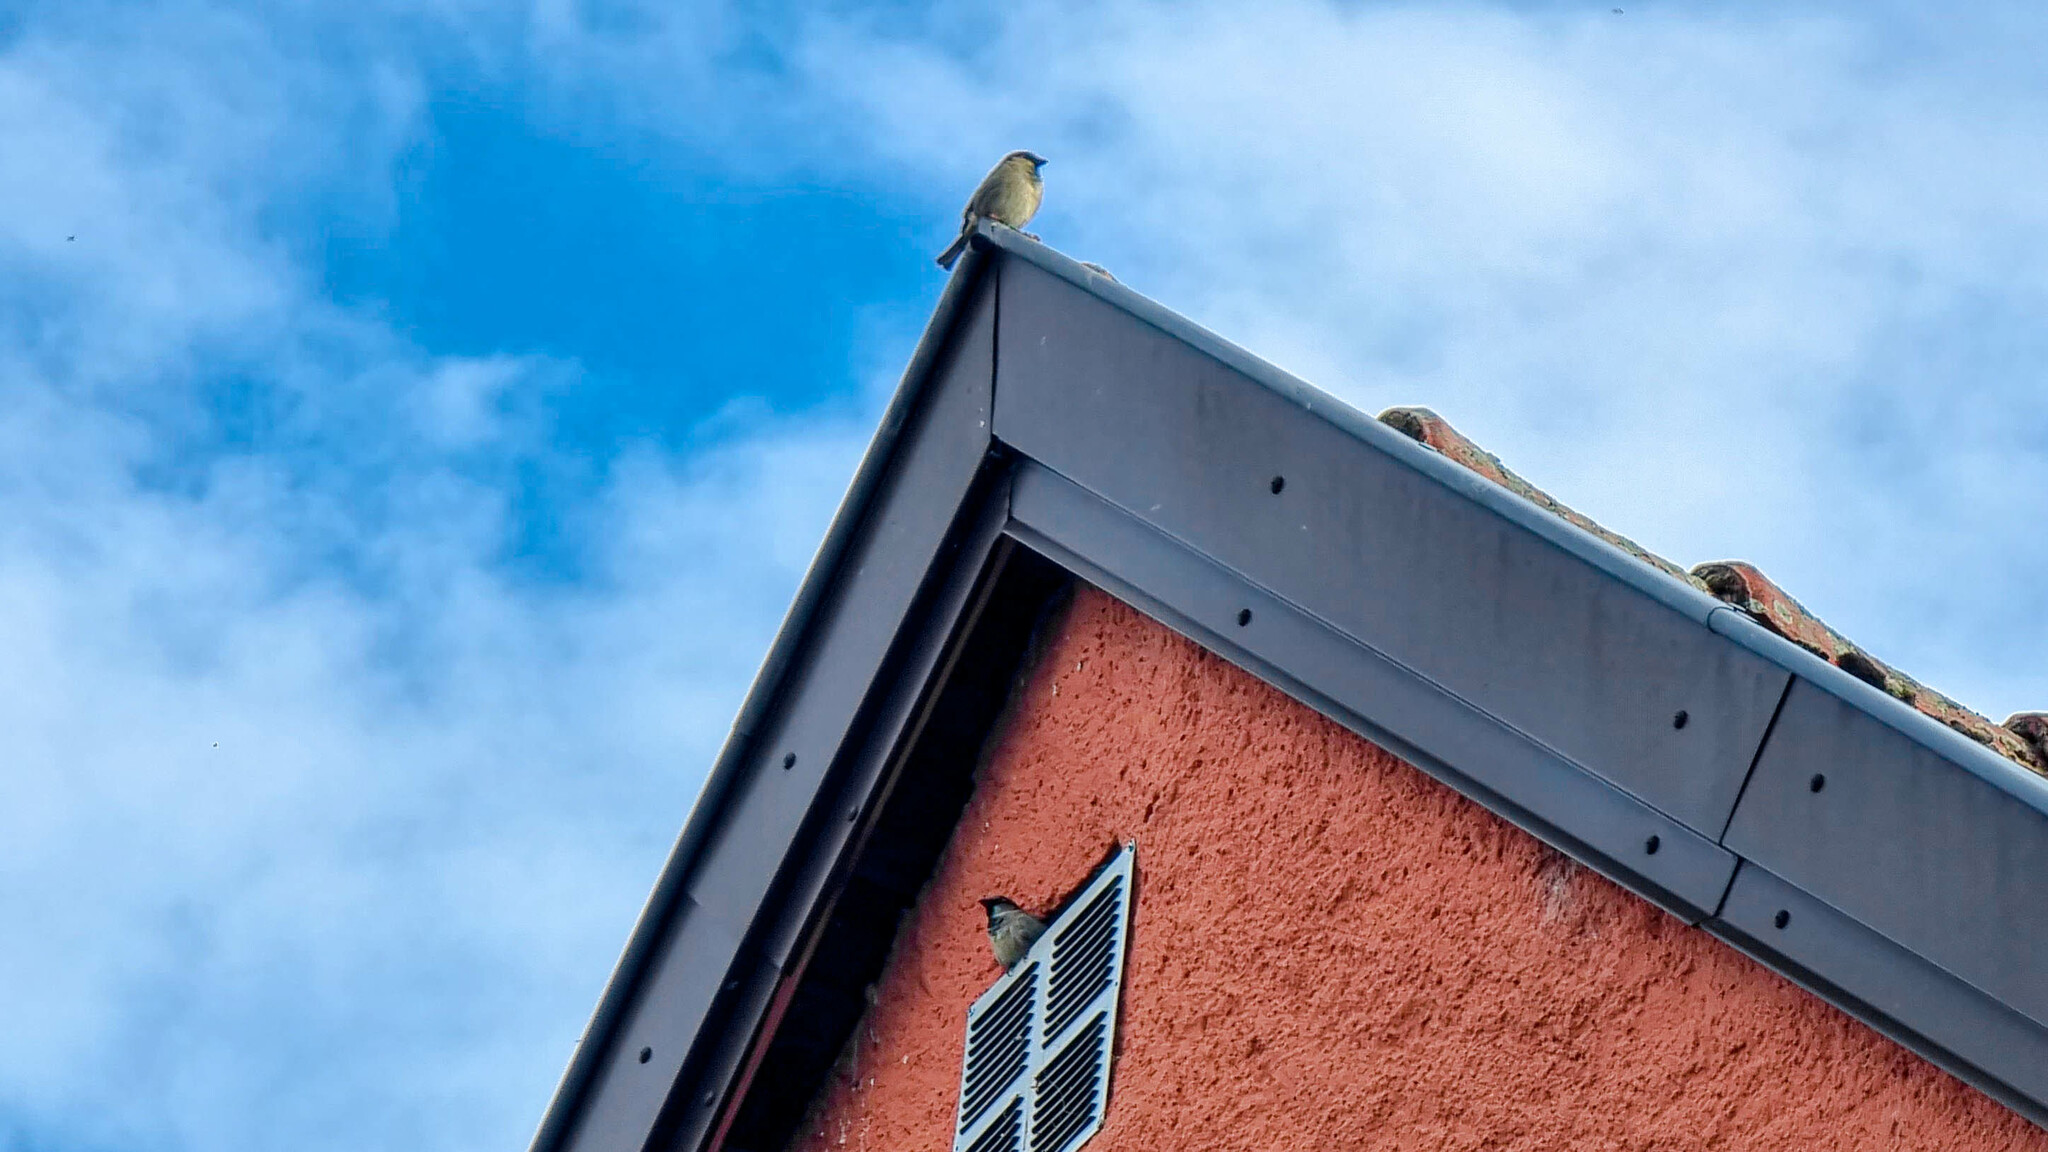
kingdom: Animalia
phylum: Chordata
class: Aves
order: Passeriformes
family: Passeridae
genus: Passer
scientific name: Passer domesticus
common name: House sparrow
